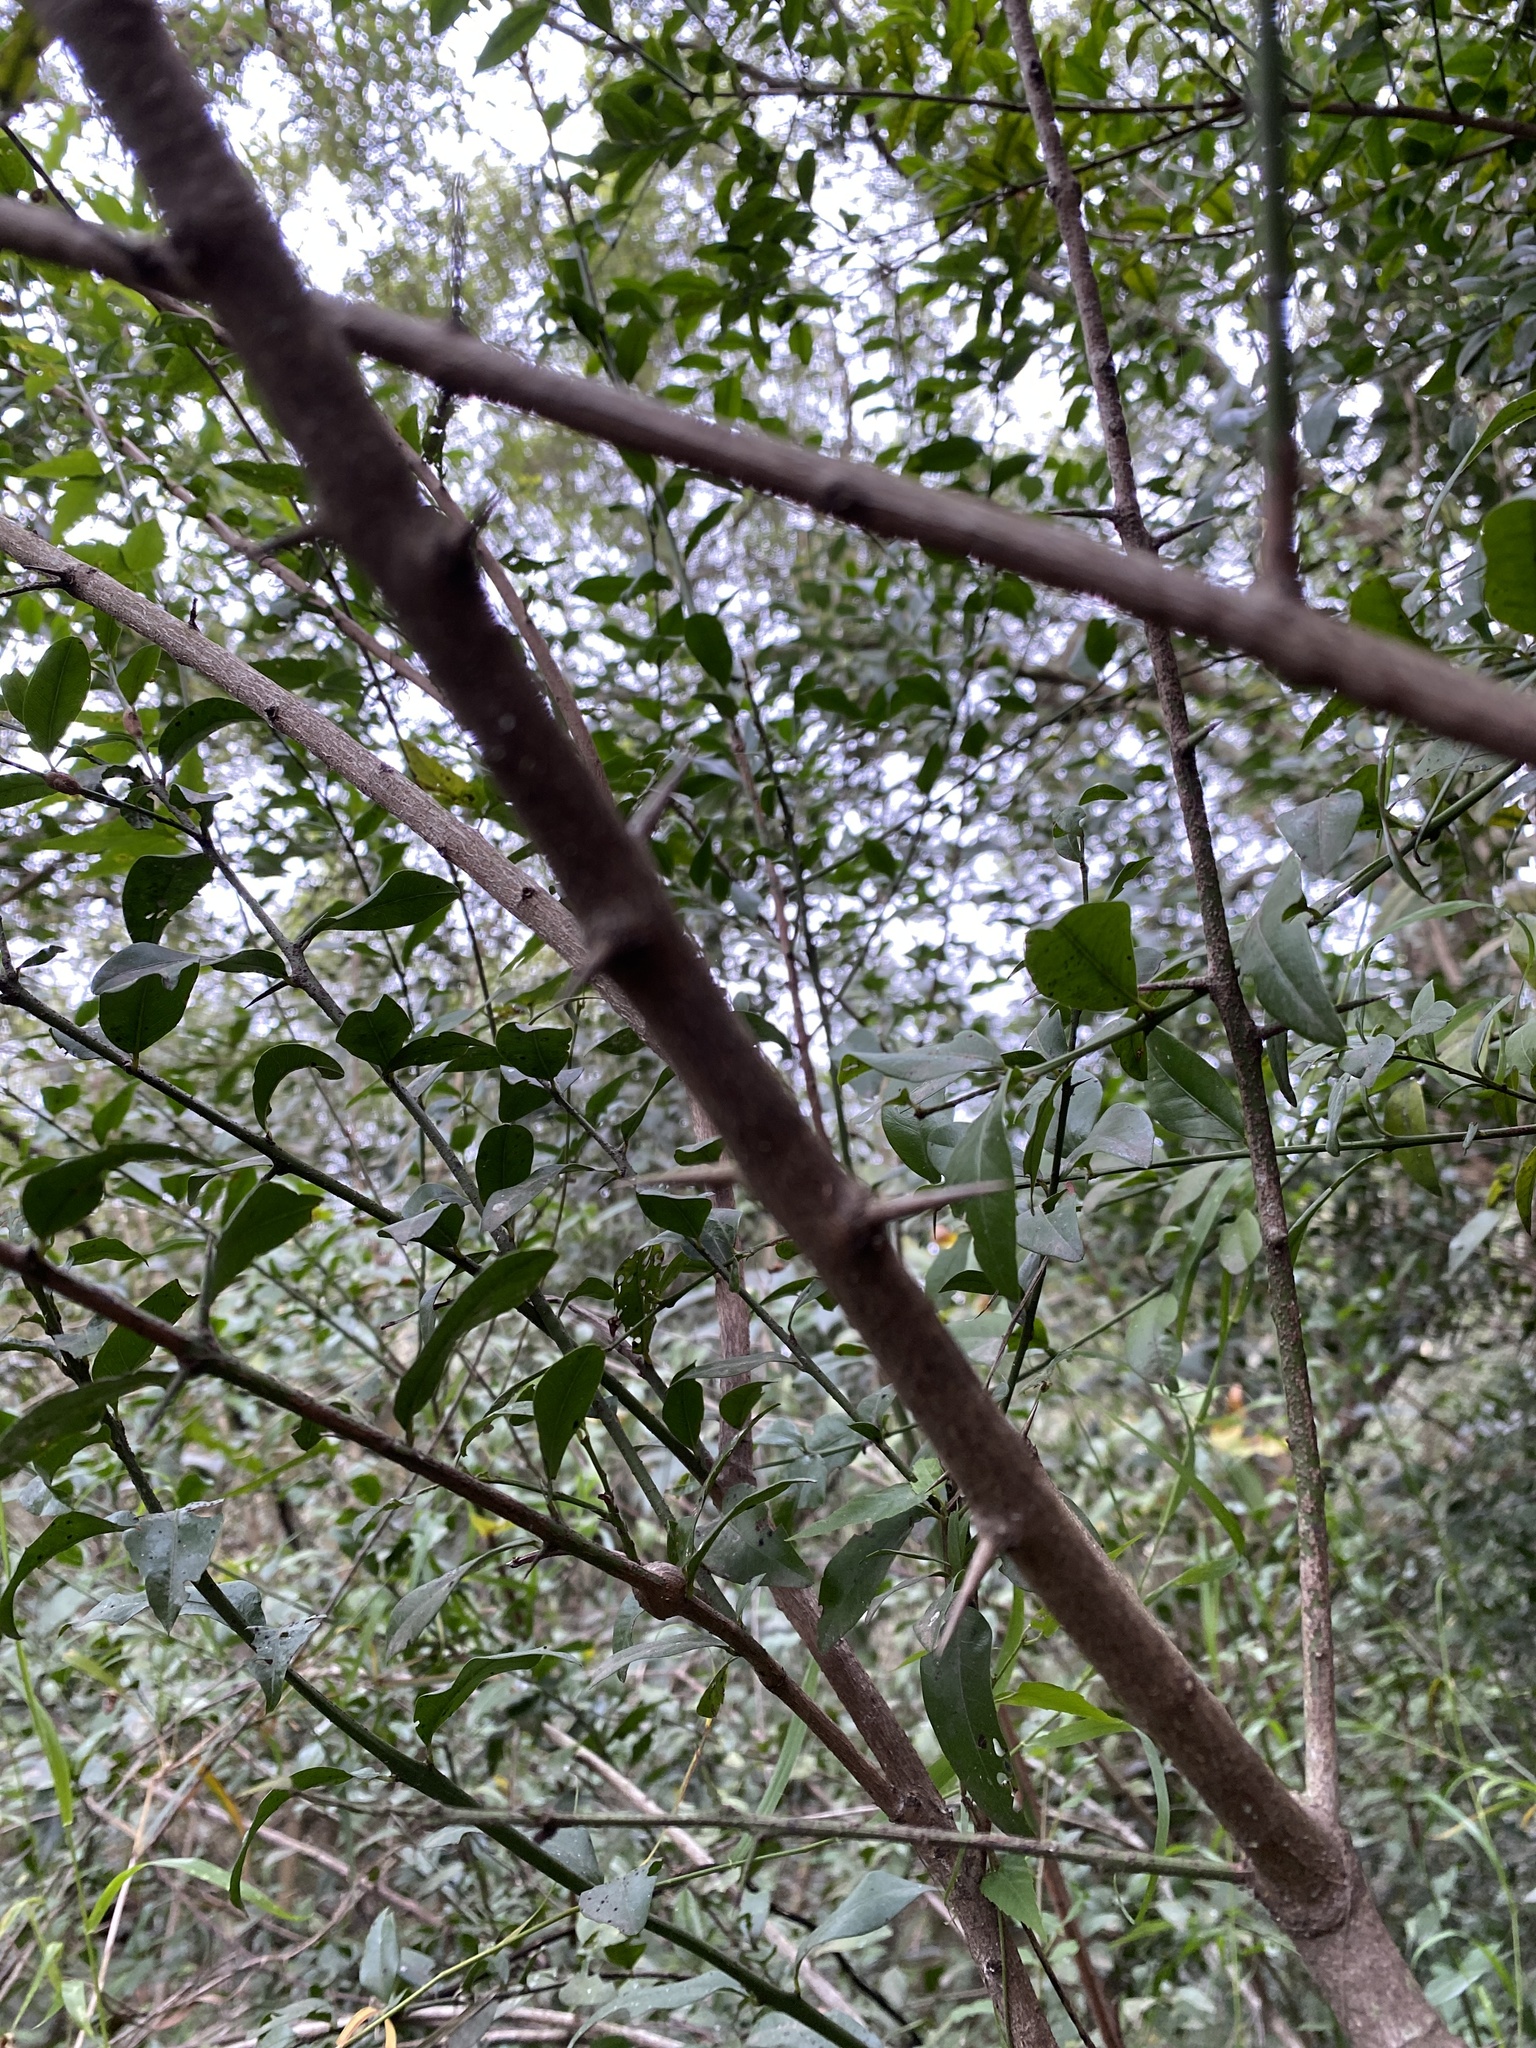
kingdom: Plantae
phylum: Tracheophyta
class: Magnoliopsida
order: Rosales
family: Rhamnaceae
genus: Scutia
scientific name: Scutia buxifolia
